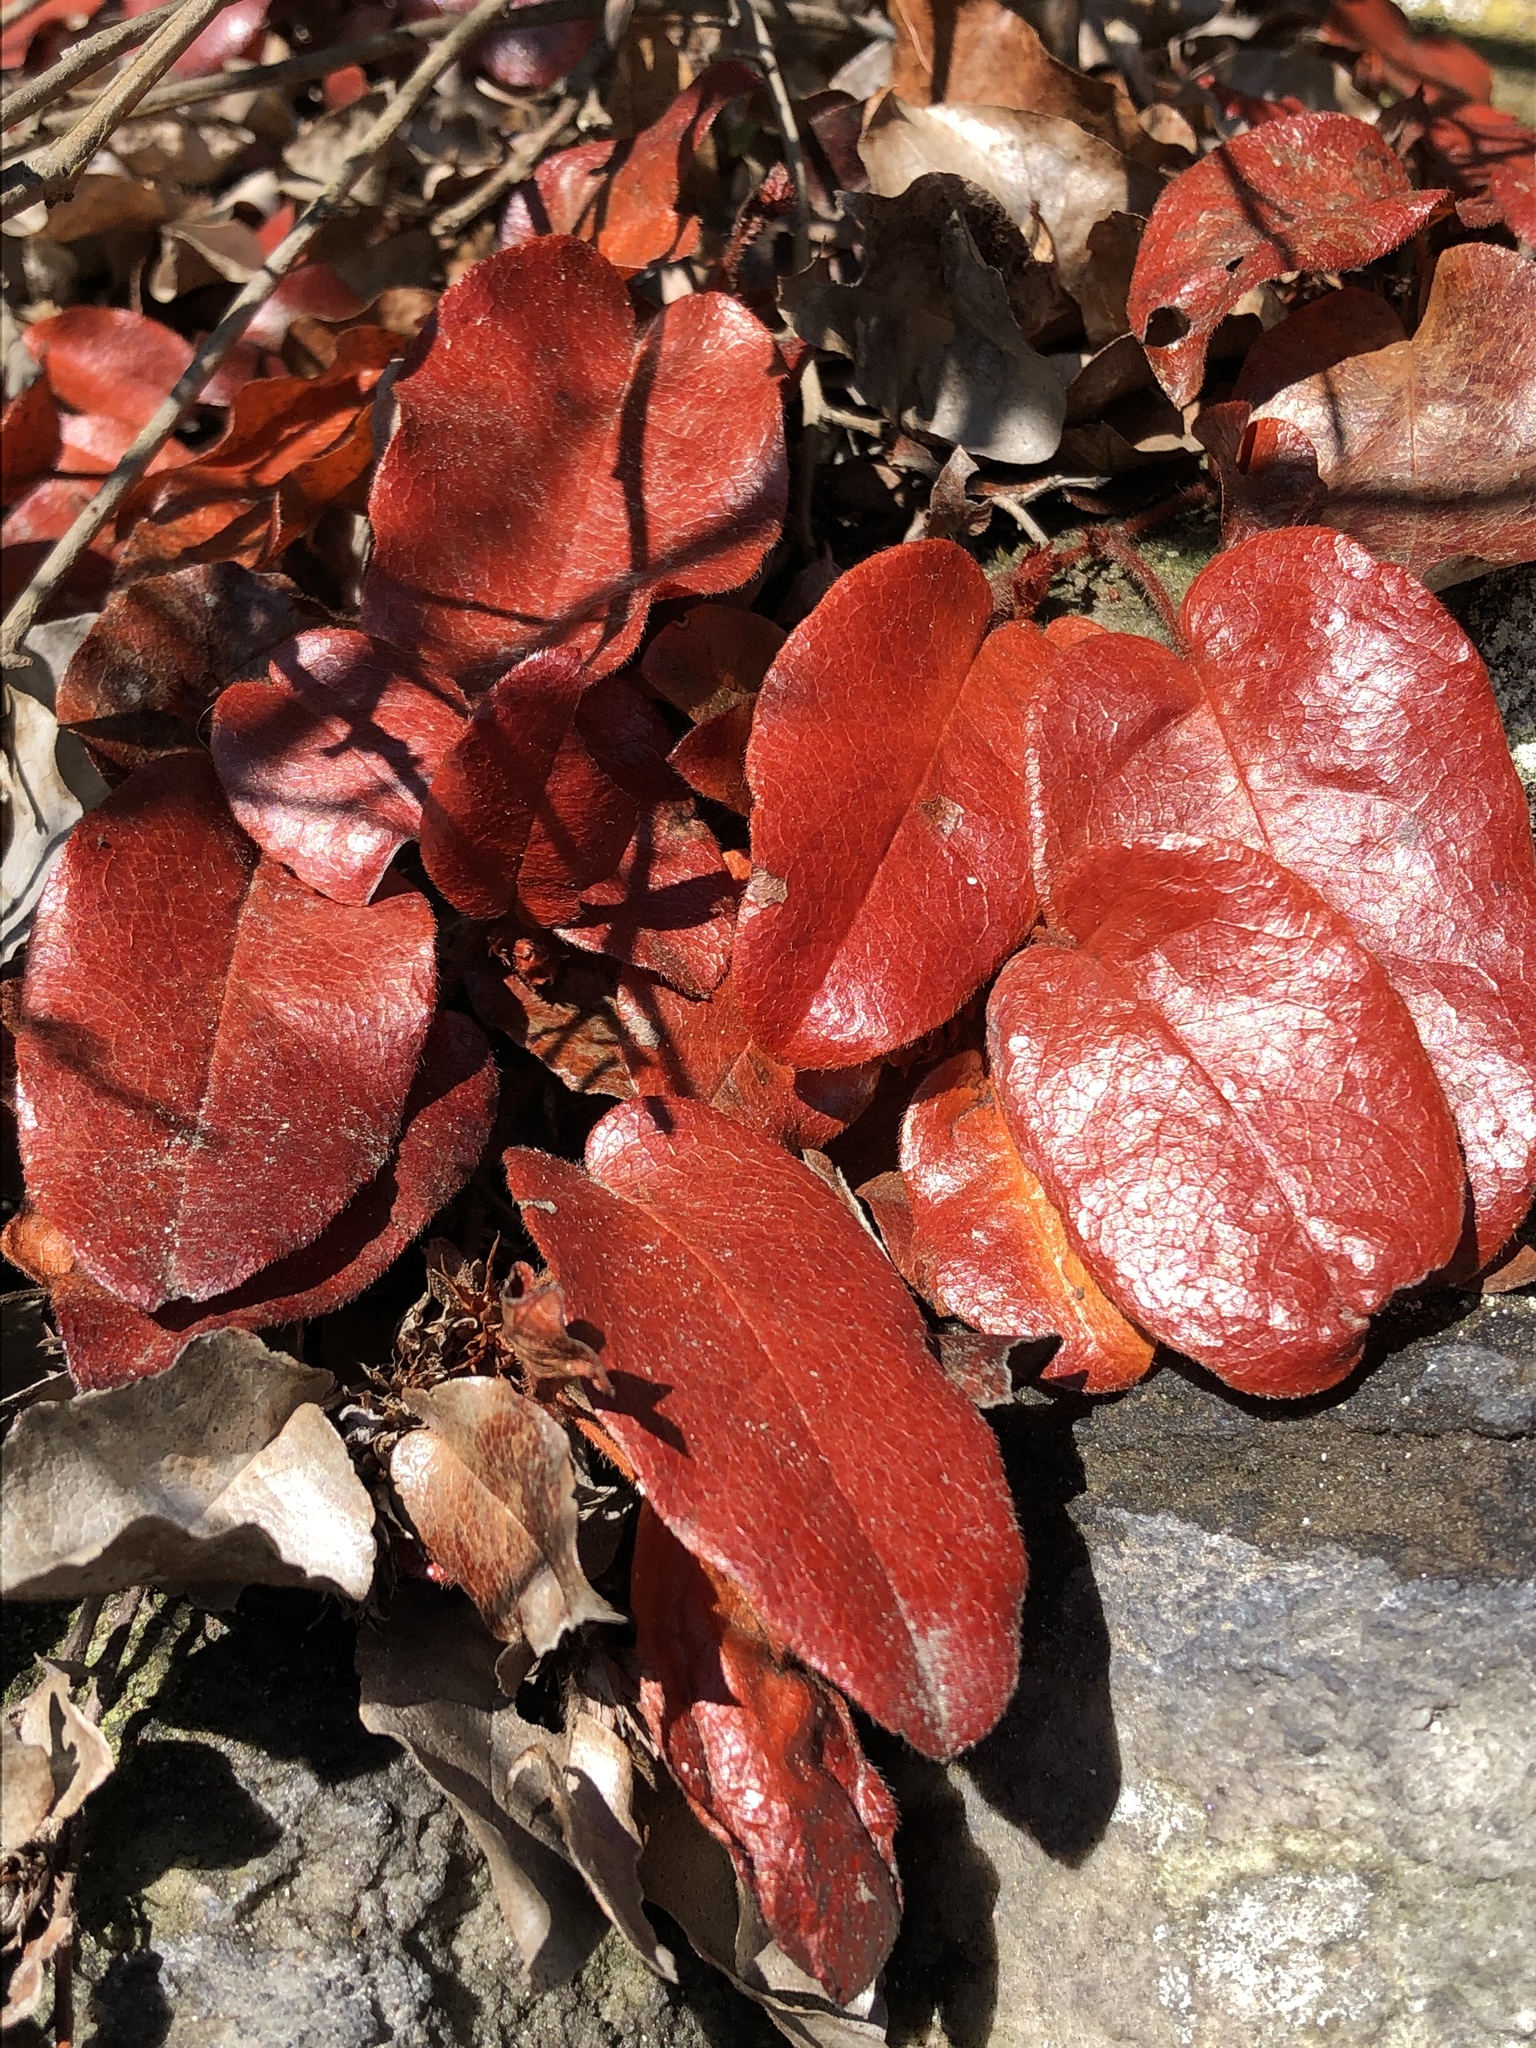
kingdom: Plantae
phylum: Tracheophyta
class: Magnoliopsida
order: Ericales
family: Ericaceae
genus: Epigaea
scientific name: Epigaea repens
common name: Gravelroot
